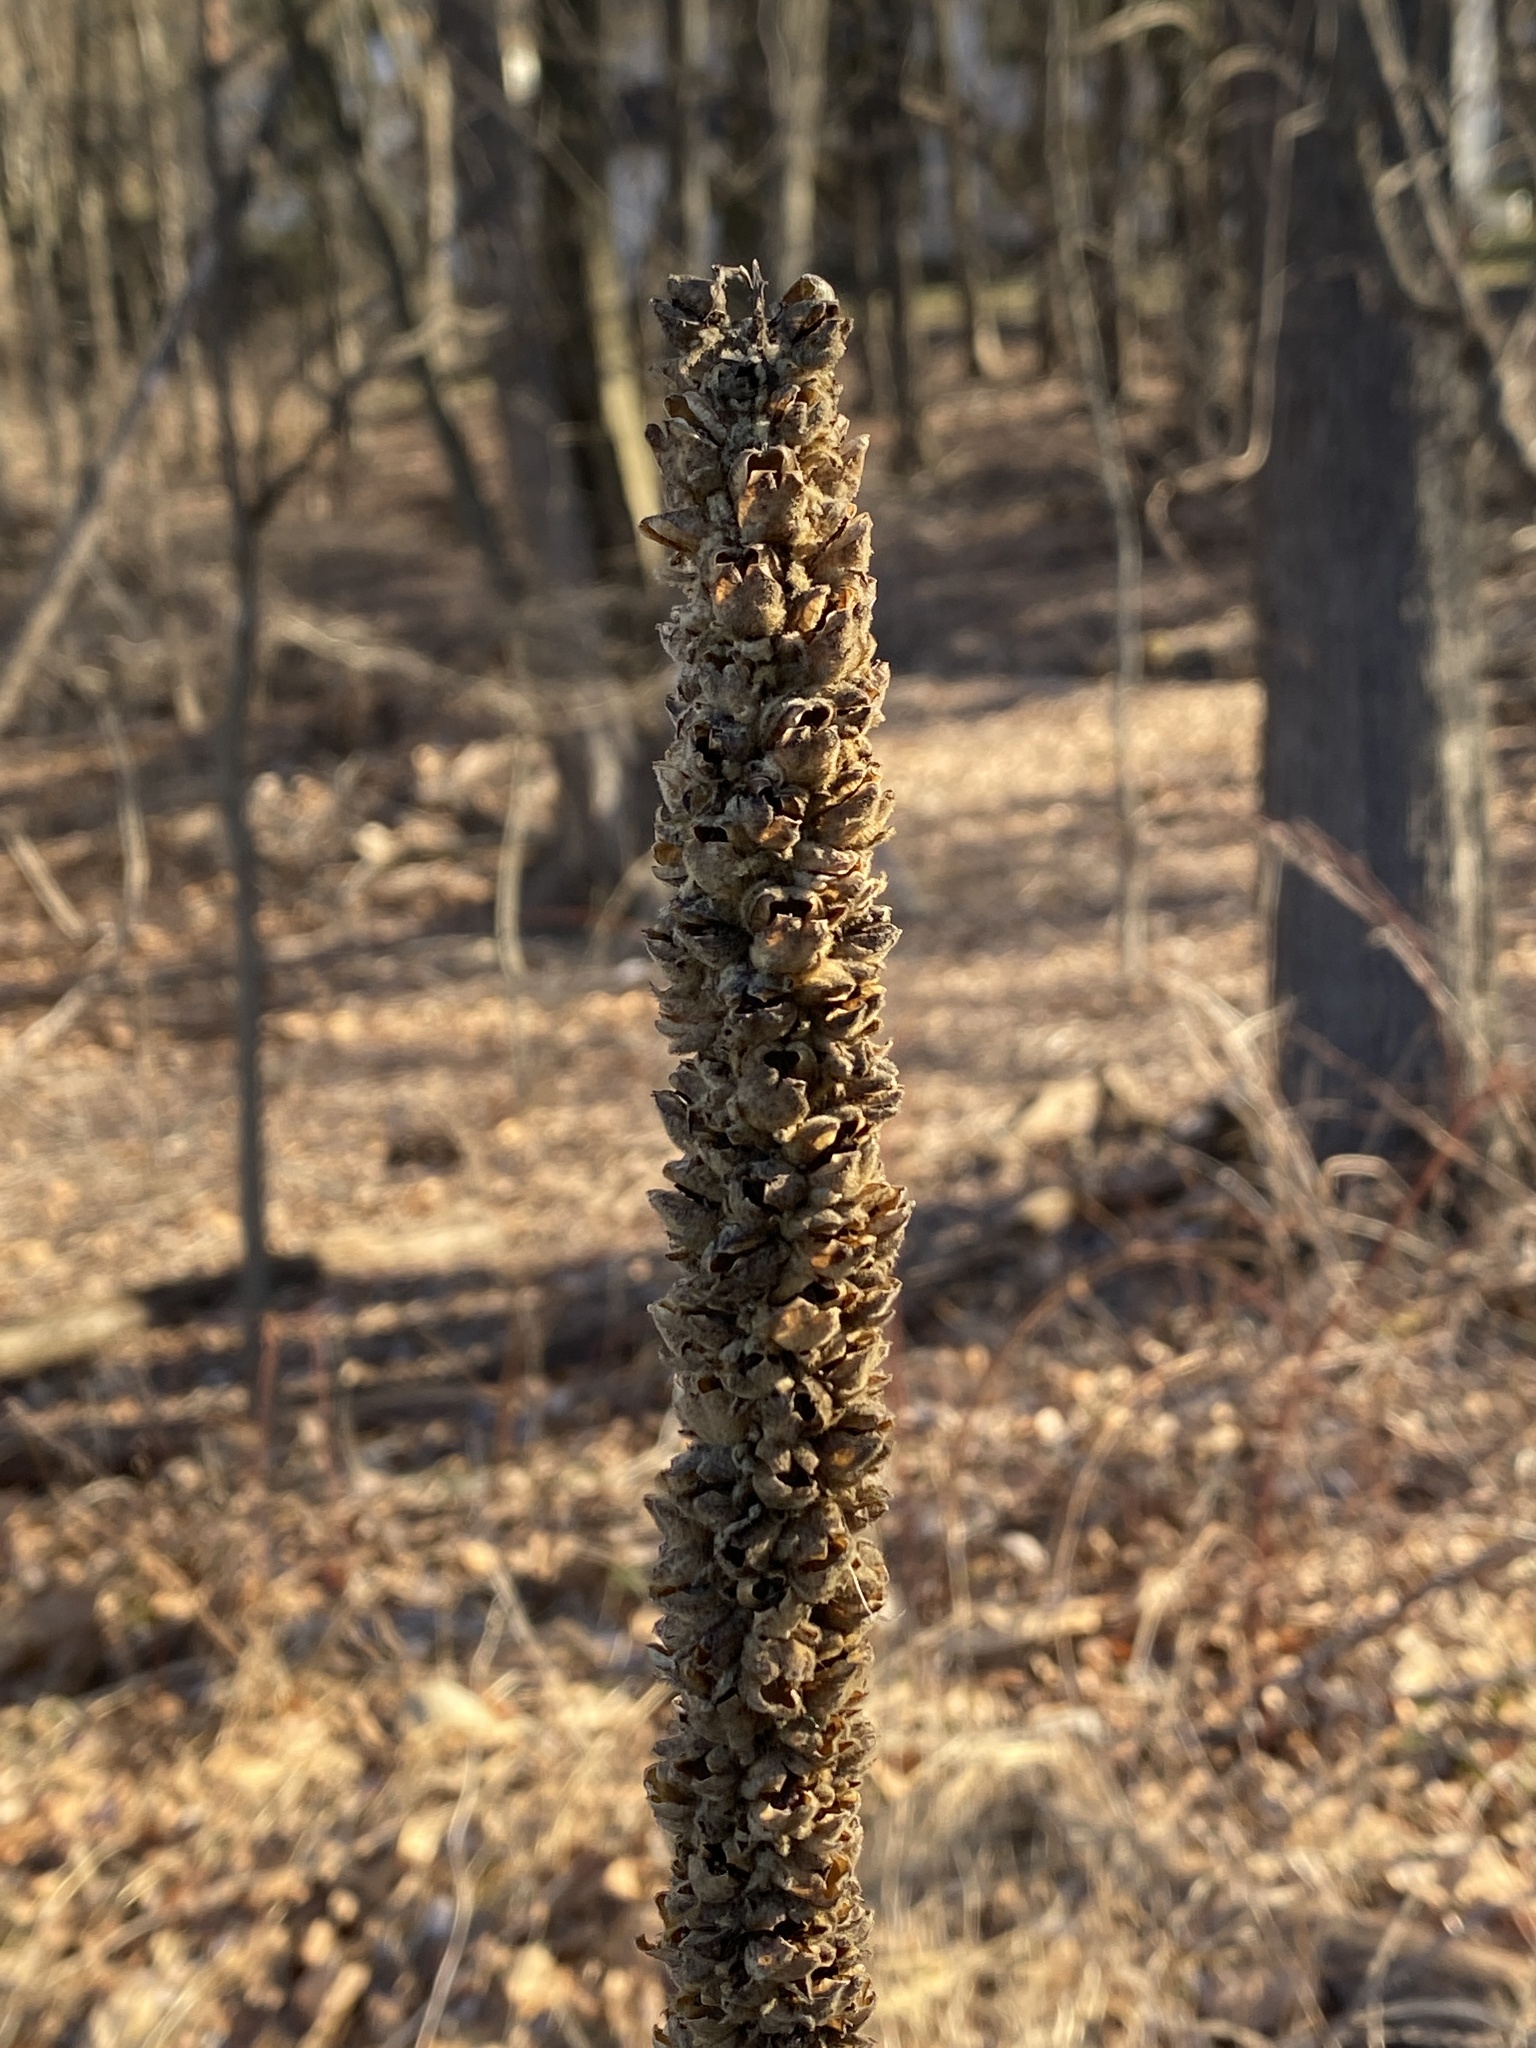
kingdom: Plantae
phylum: Tracheophyta
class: Magnoliopsida
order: Lamiales
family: Scrophulariaceae
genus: Verbascum
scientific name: Verbascum thapsus
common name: Common mullein
